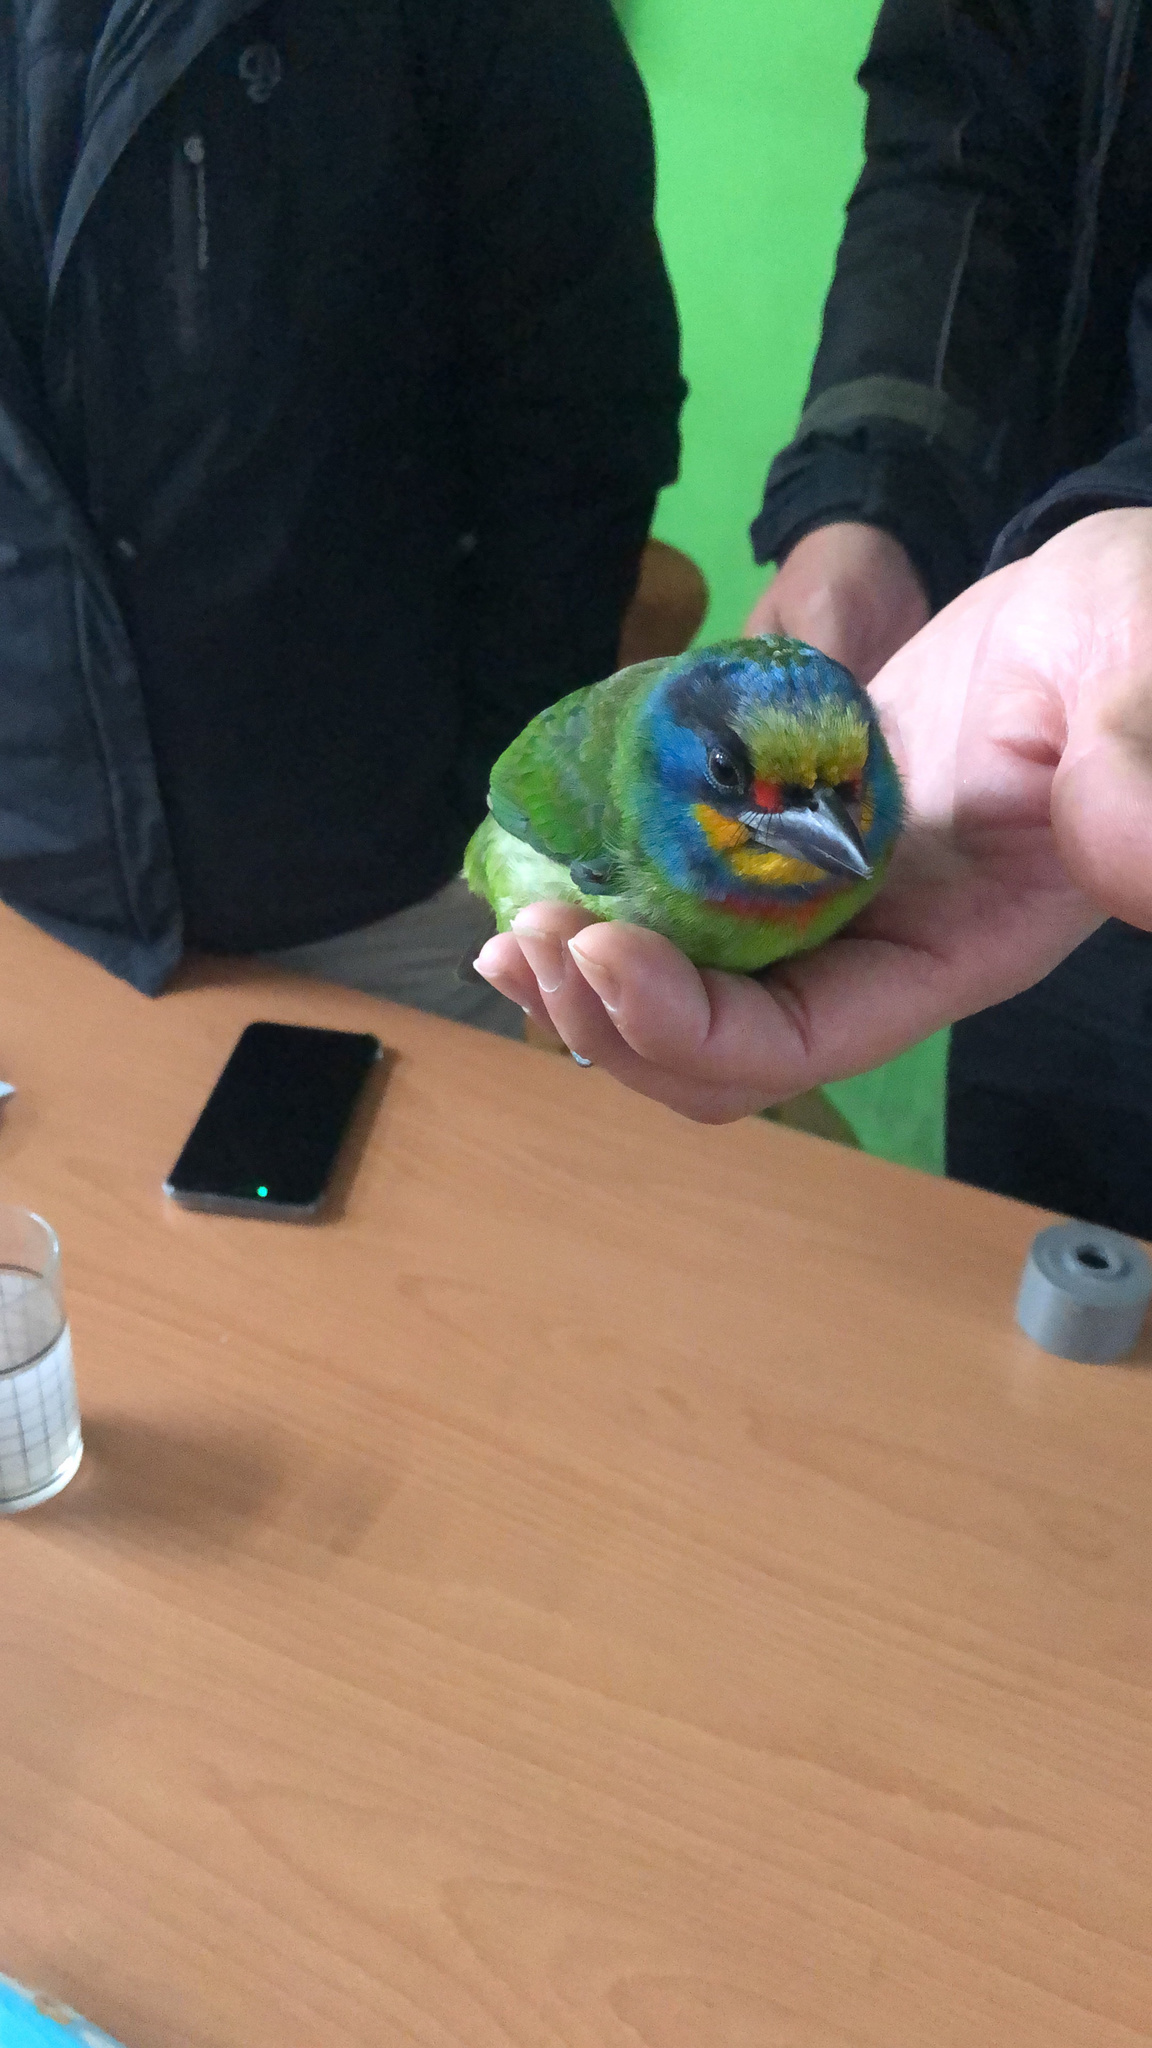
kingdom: Animalia
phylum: Chordata
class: Aves
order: Piciformes
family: Megalaimidae
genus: Psilopogon
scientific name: Psilopogon nuchalis
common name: Taiwan barbet
